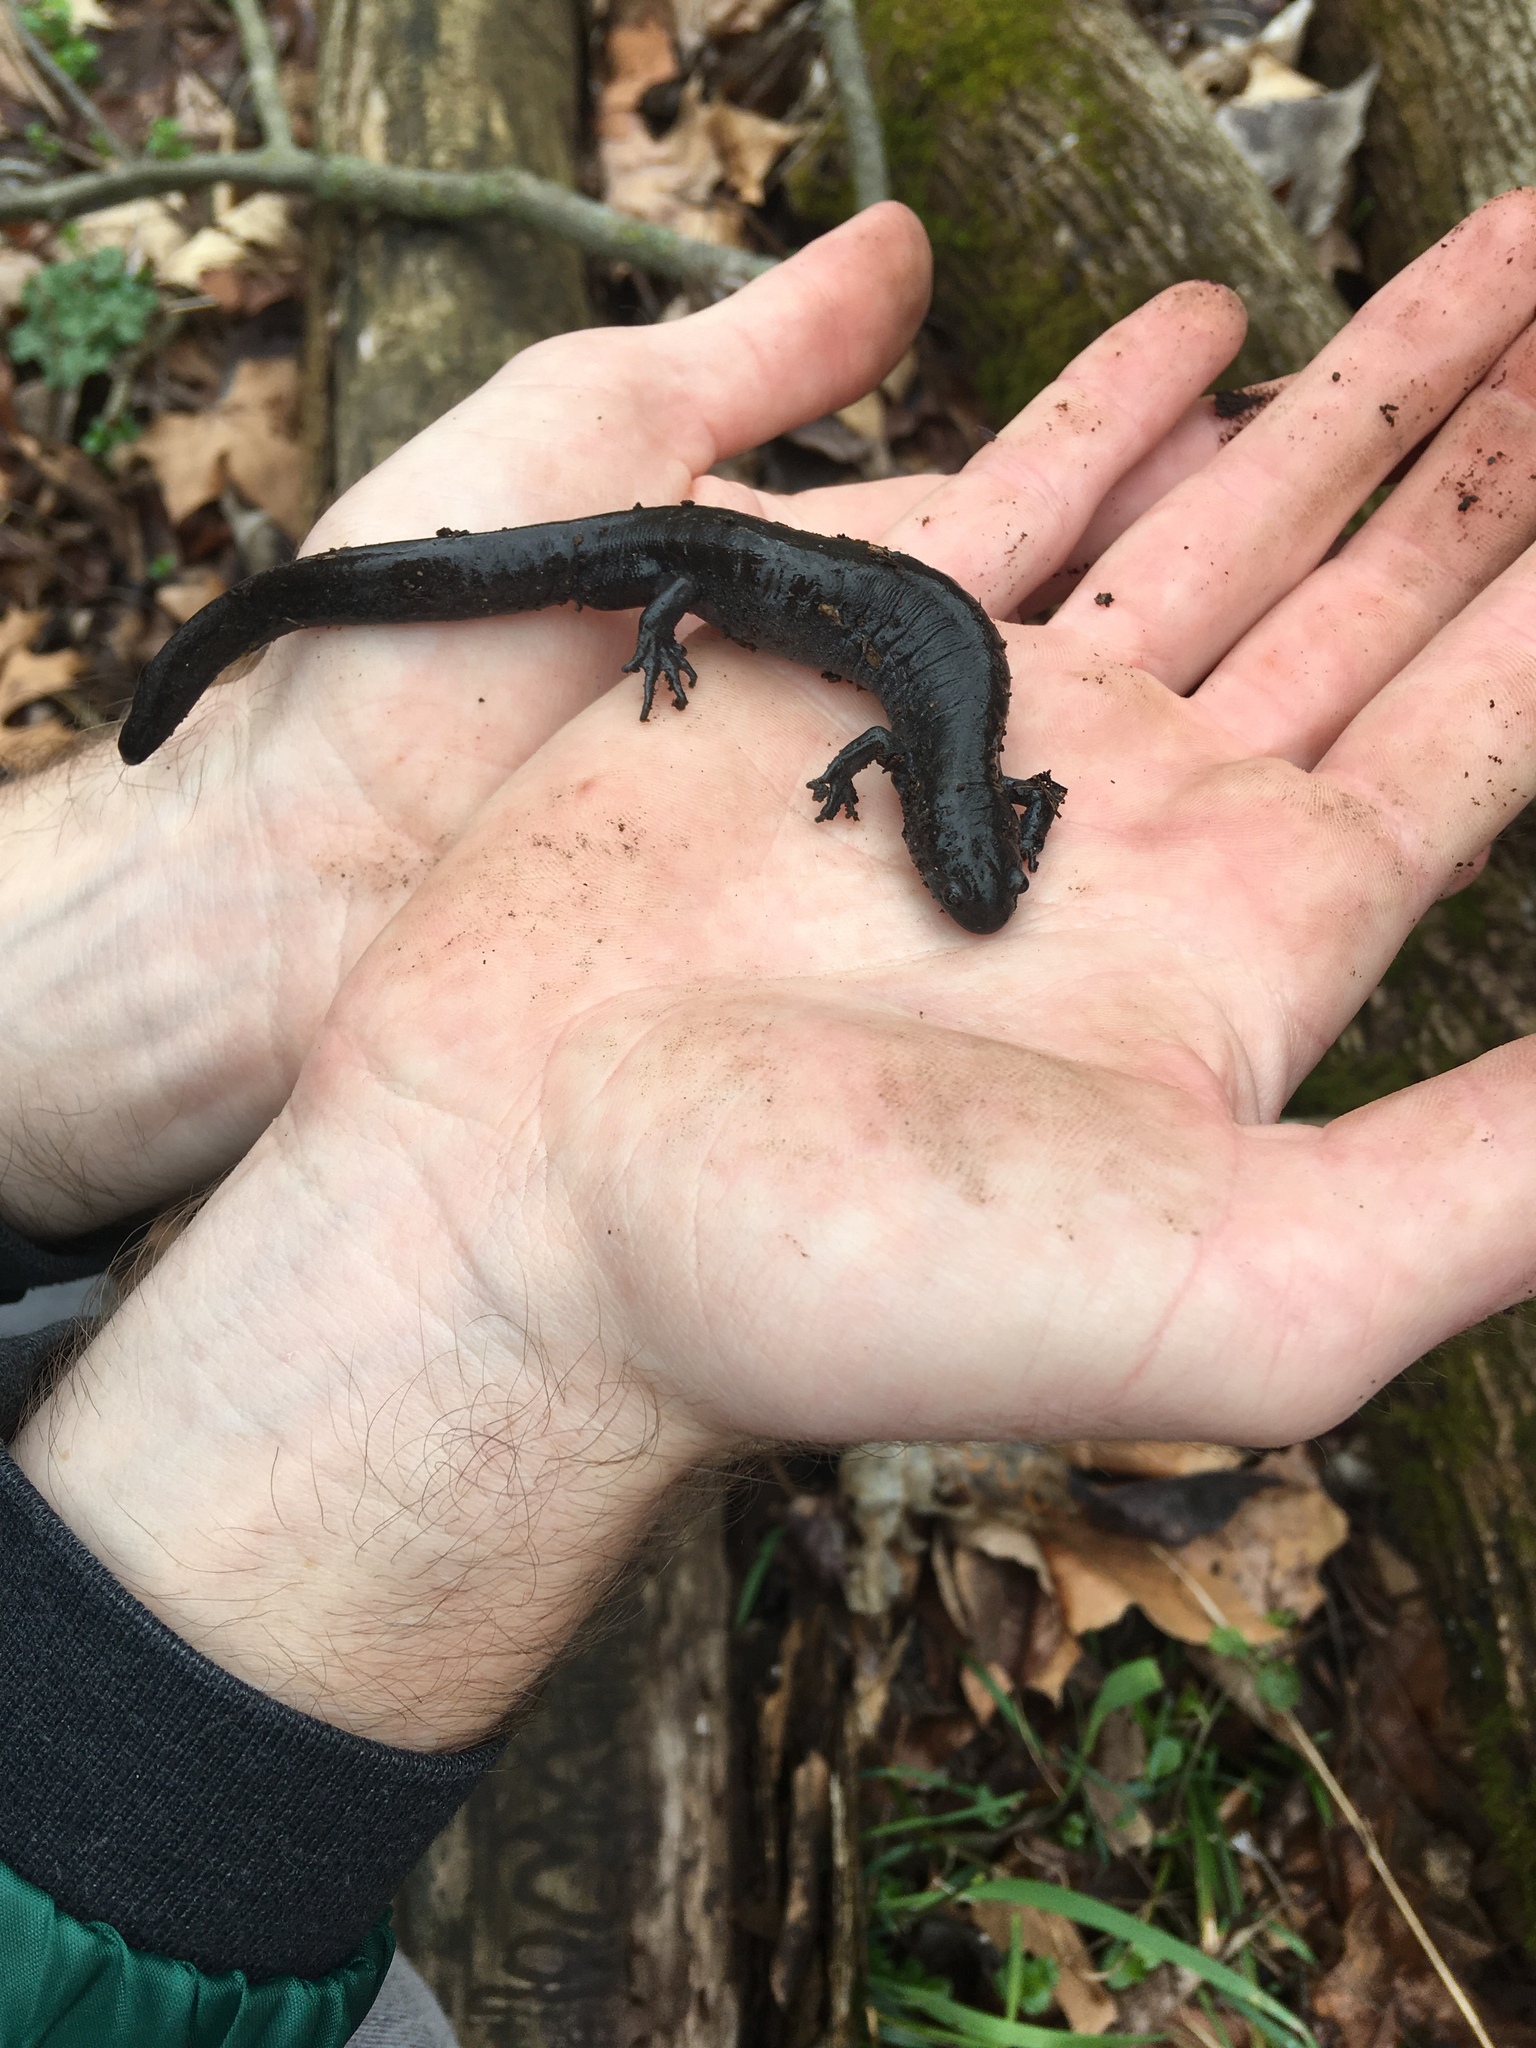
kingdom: Animalia
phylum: Chordata
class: Amphibia
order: Caudata
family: Ambystomatidae
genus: Ambystoma
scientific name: Ambystoma texanum
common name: Small-mouth salamander
